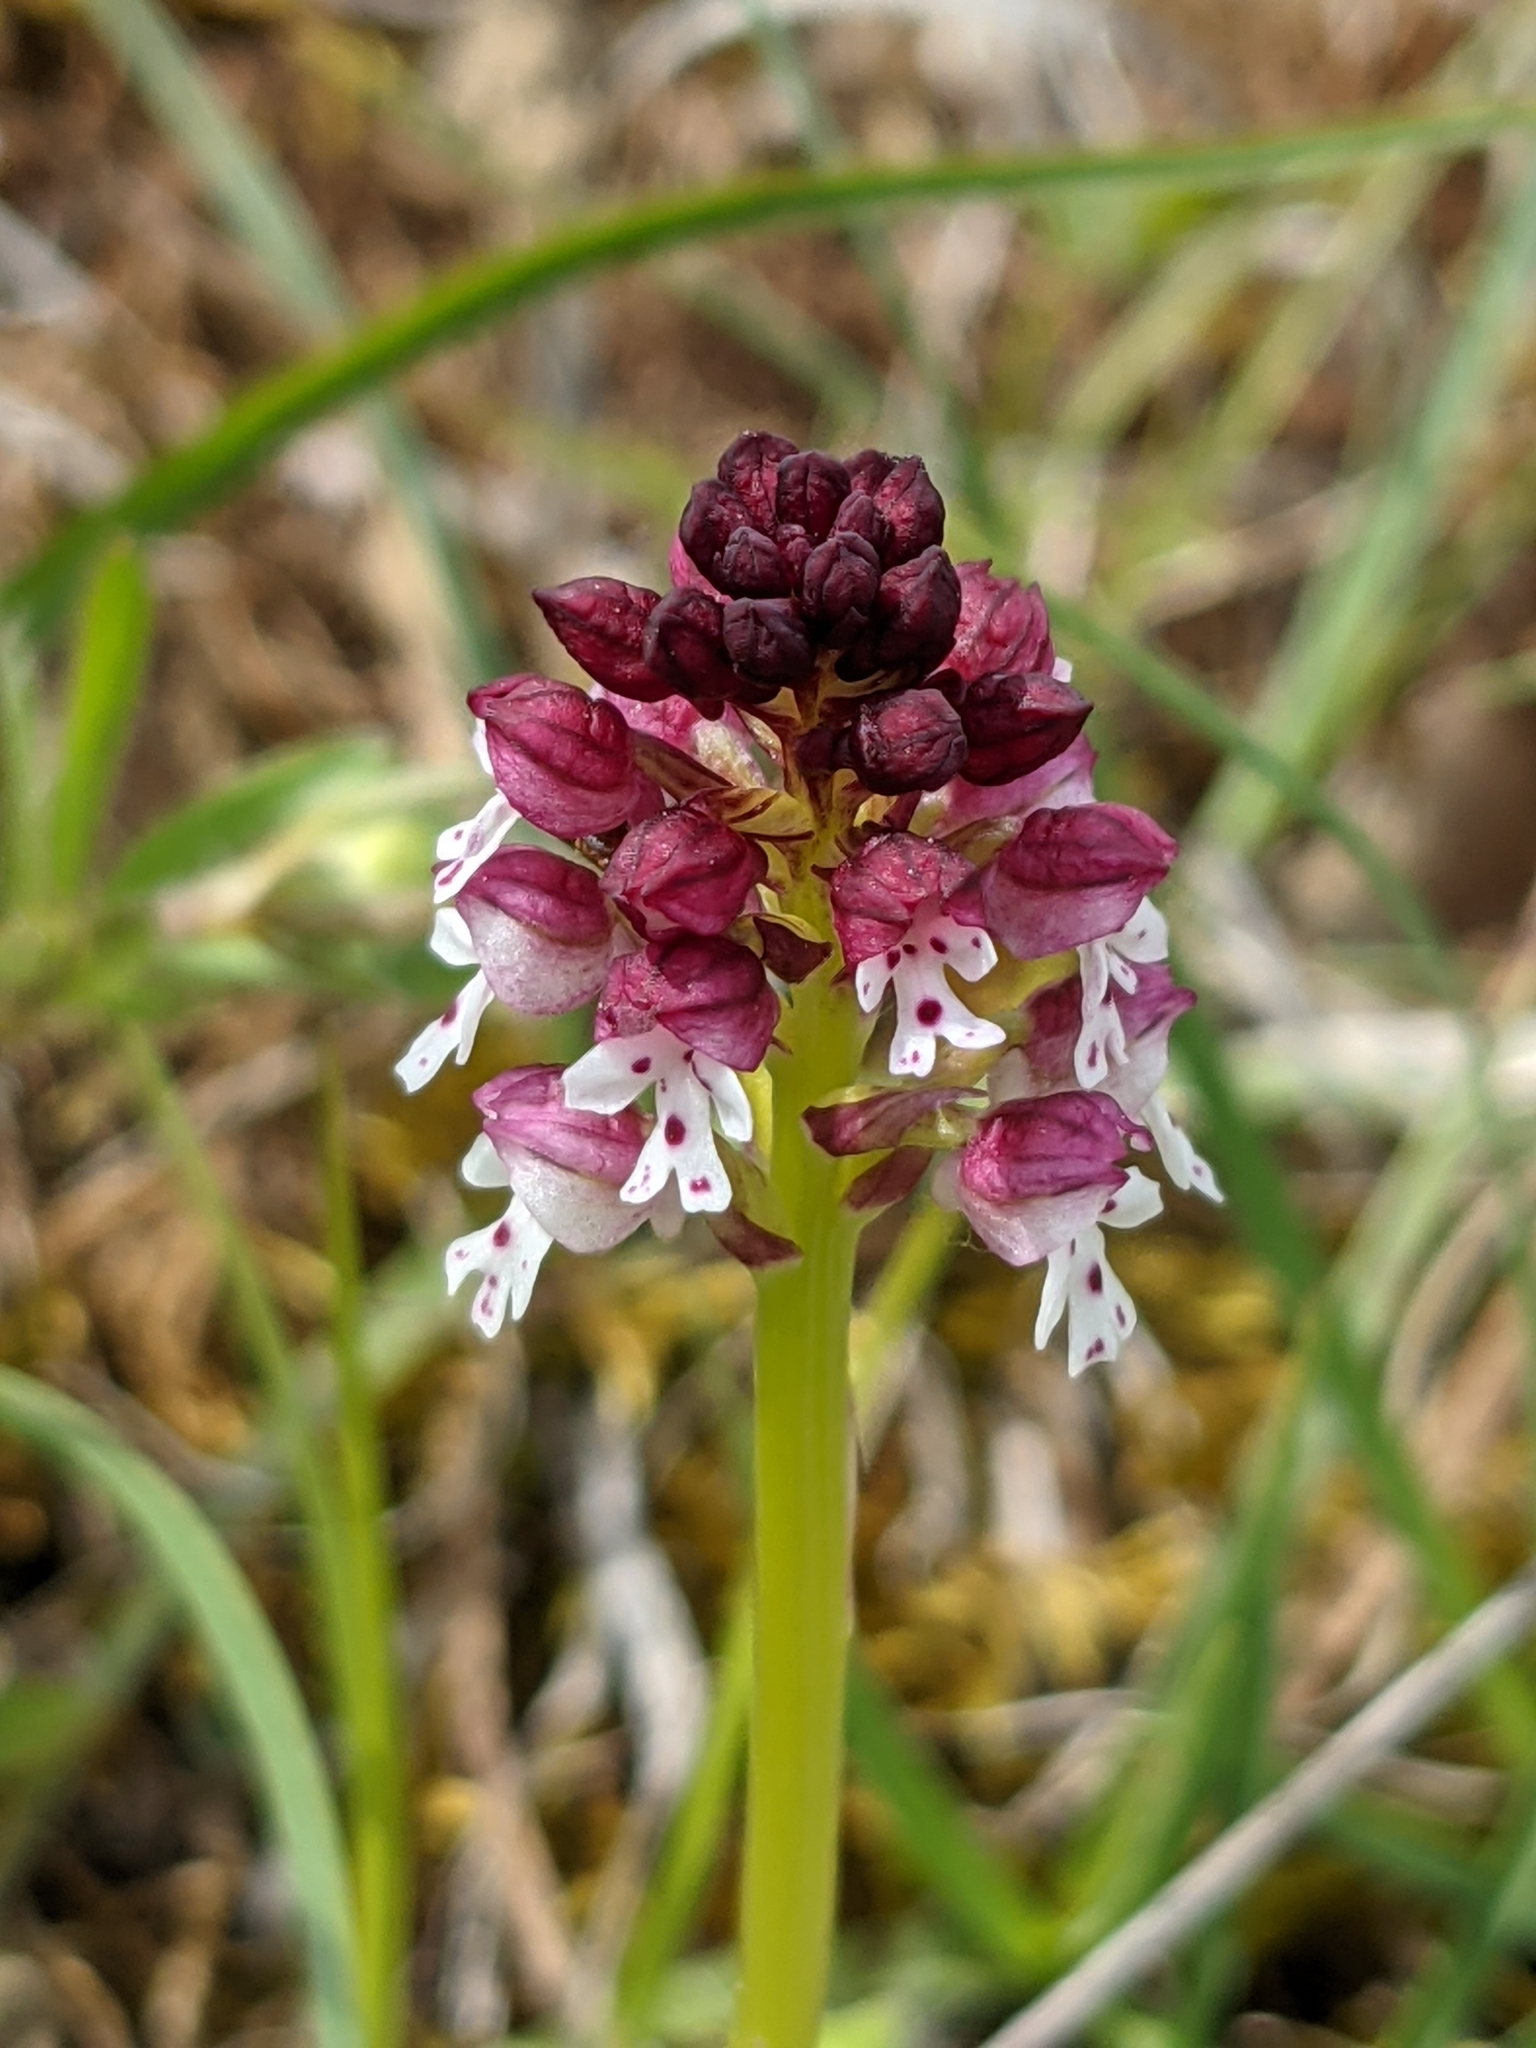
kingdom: Plantae
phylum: Tracheophyta
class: Liliopsida
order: Asparagales
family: Orchidaceae
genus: Neotinea
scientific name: Neotinea ustulata
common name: Burnt orchid
